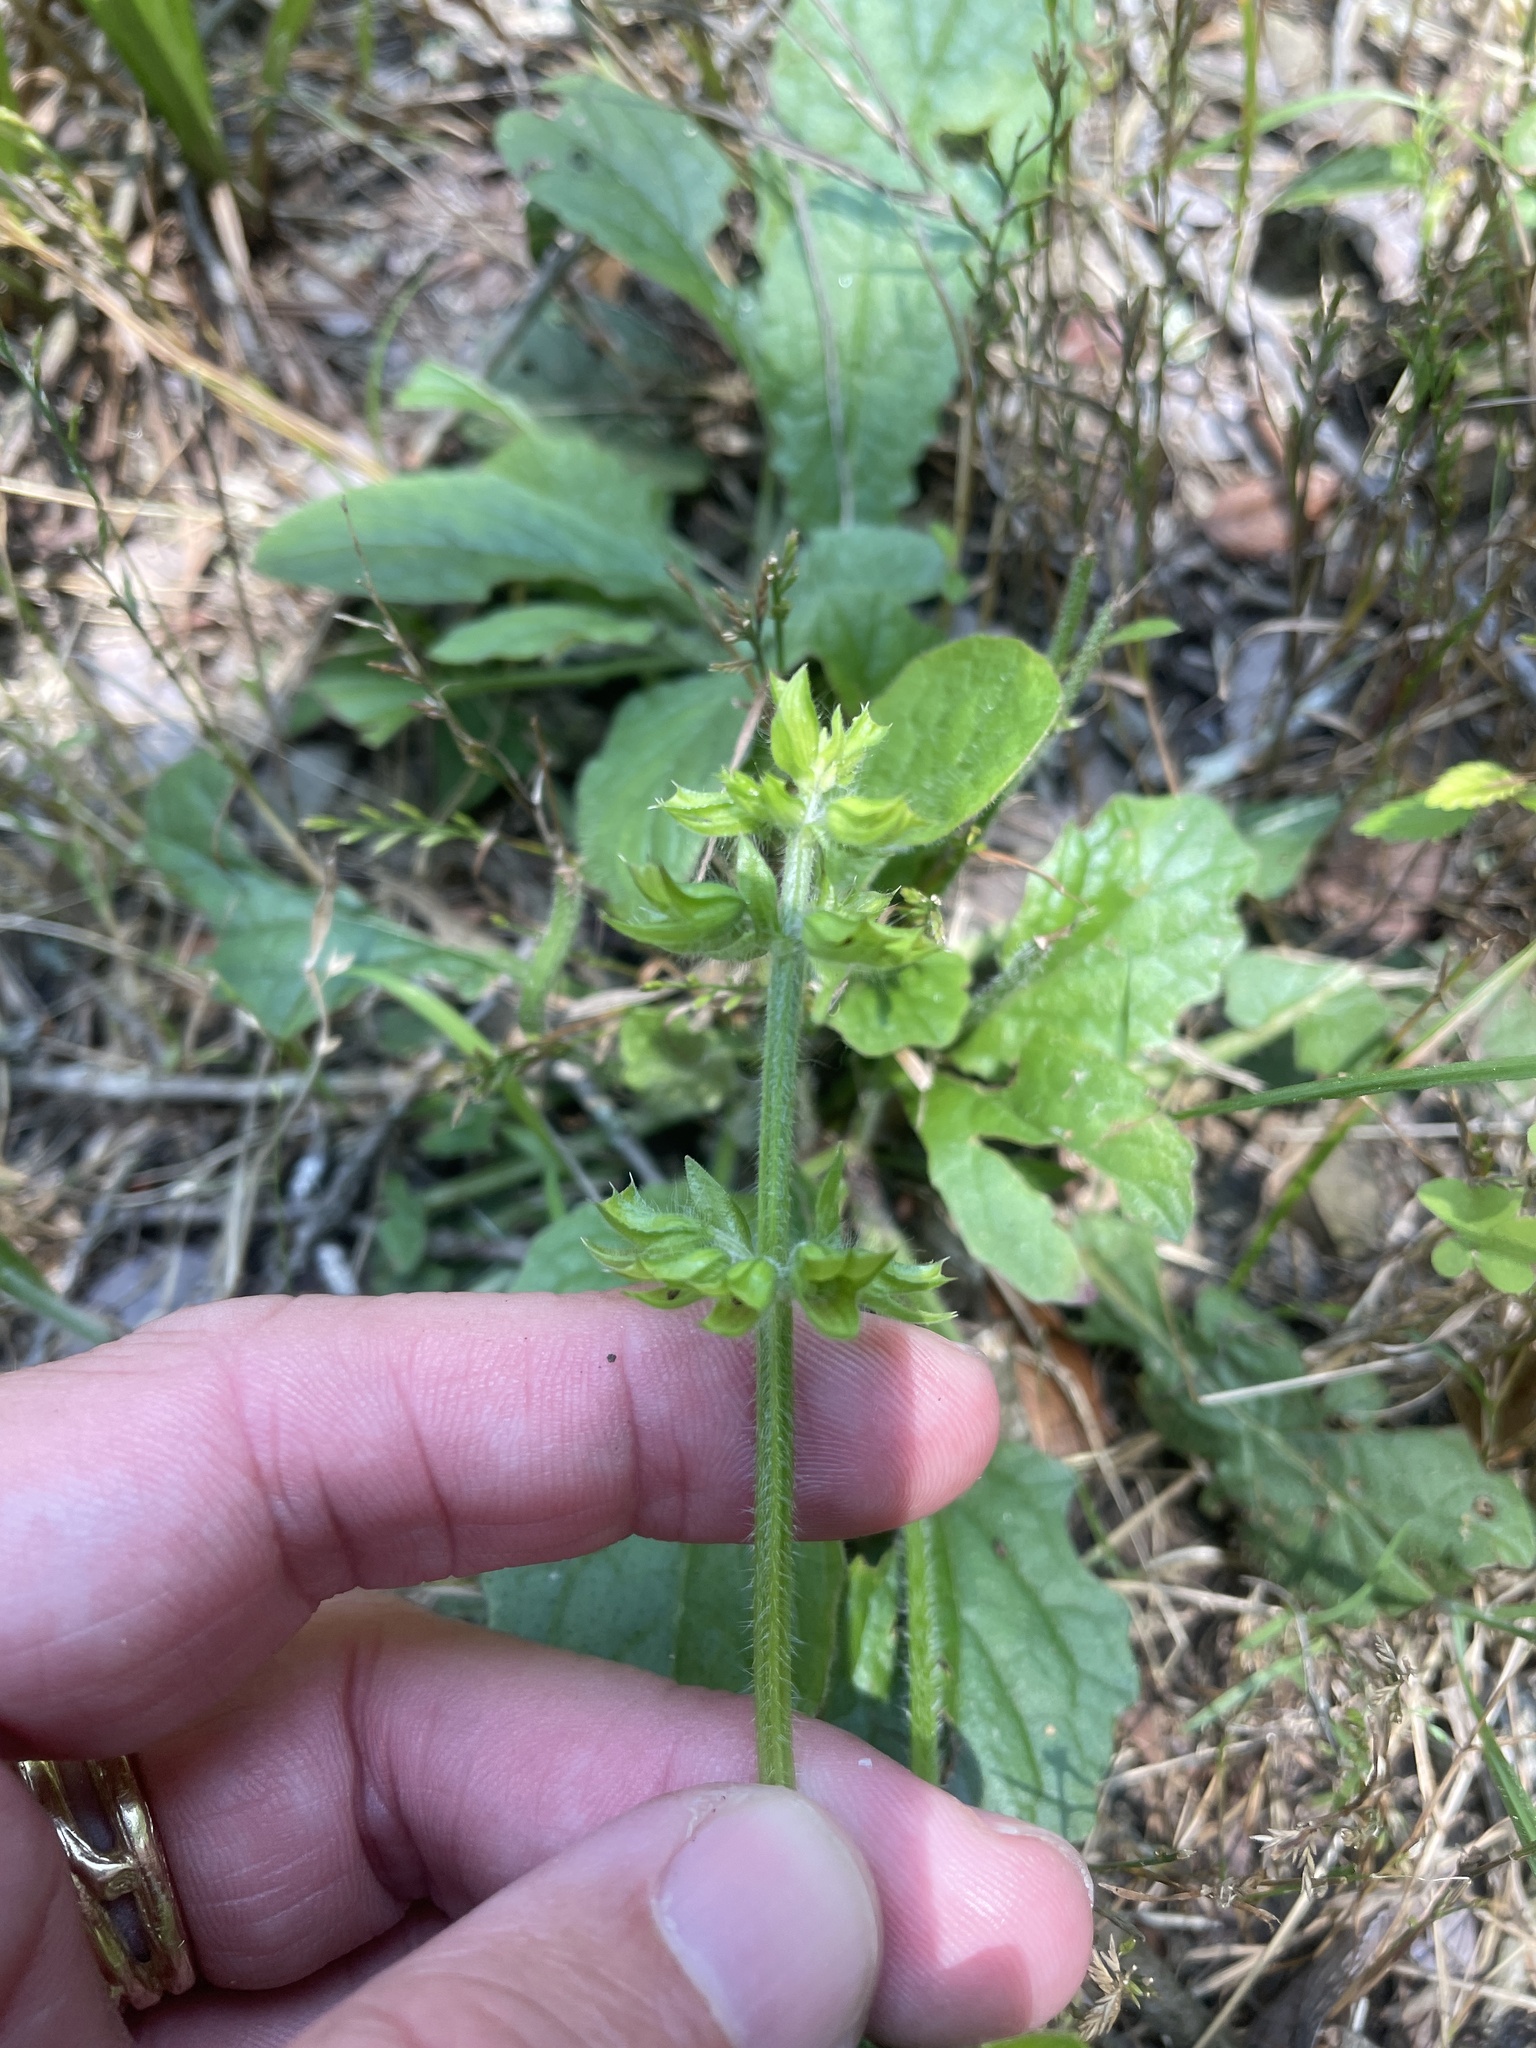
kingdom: Plantae
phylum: Tracheophyta
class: Magnoliopsida
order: Lamiales
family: Lamiaceae
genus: Salvia
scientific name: Salvia lyrata
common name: Cancerweed
